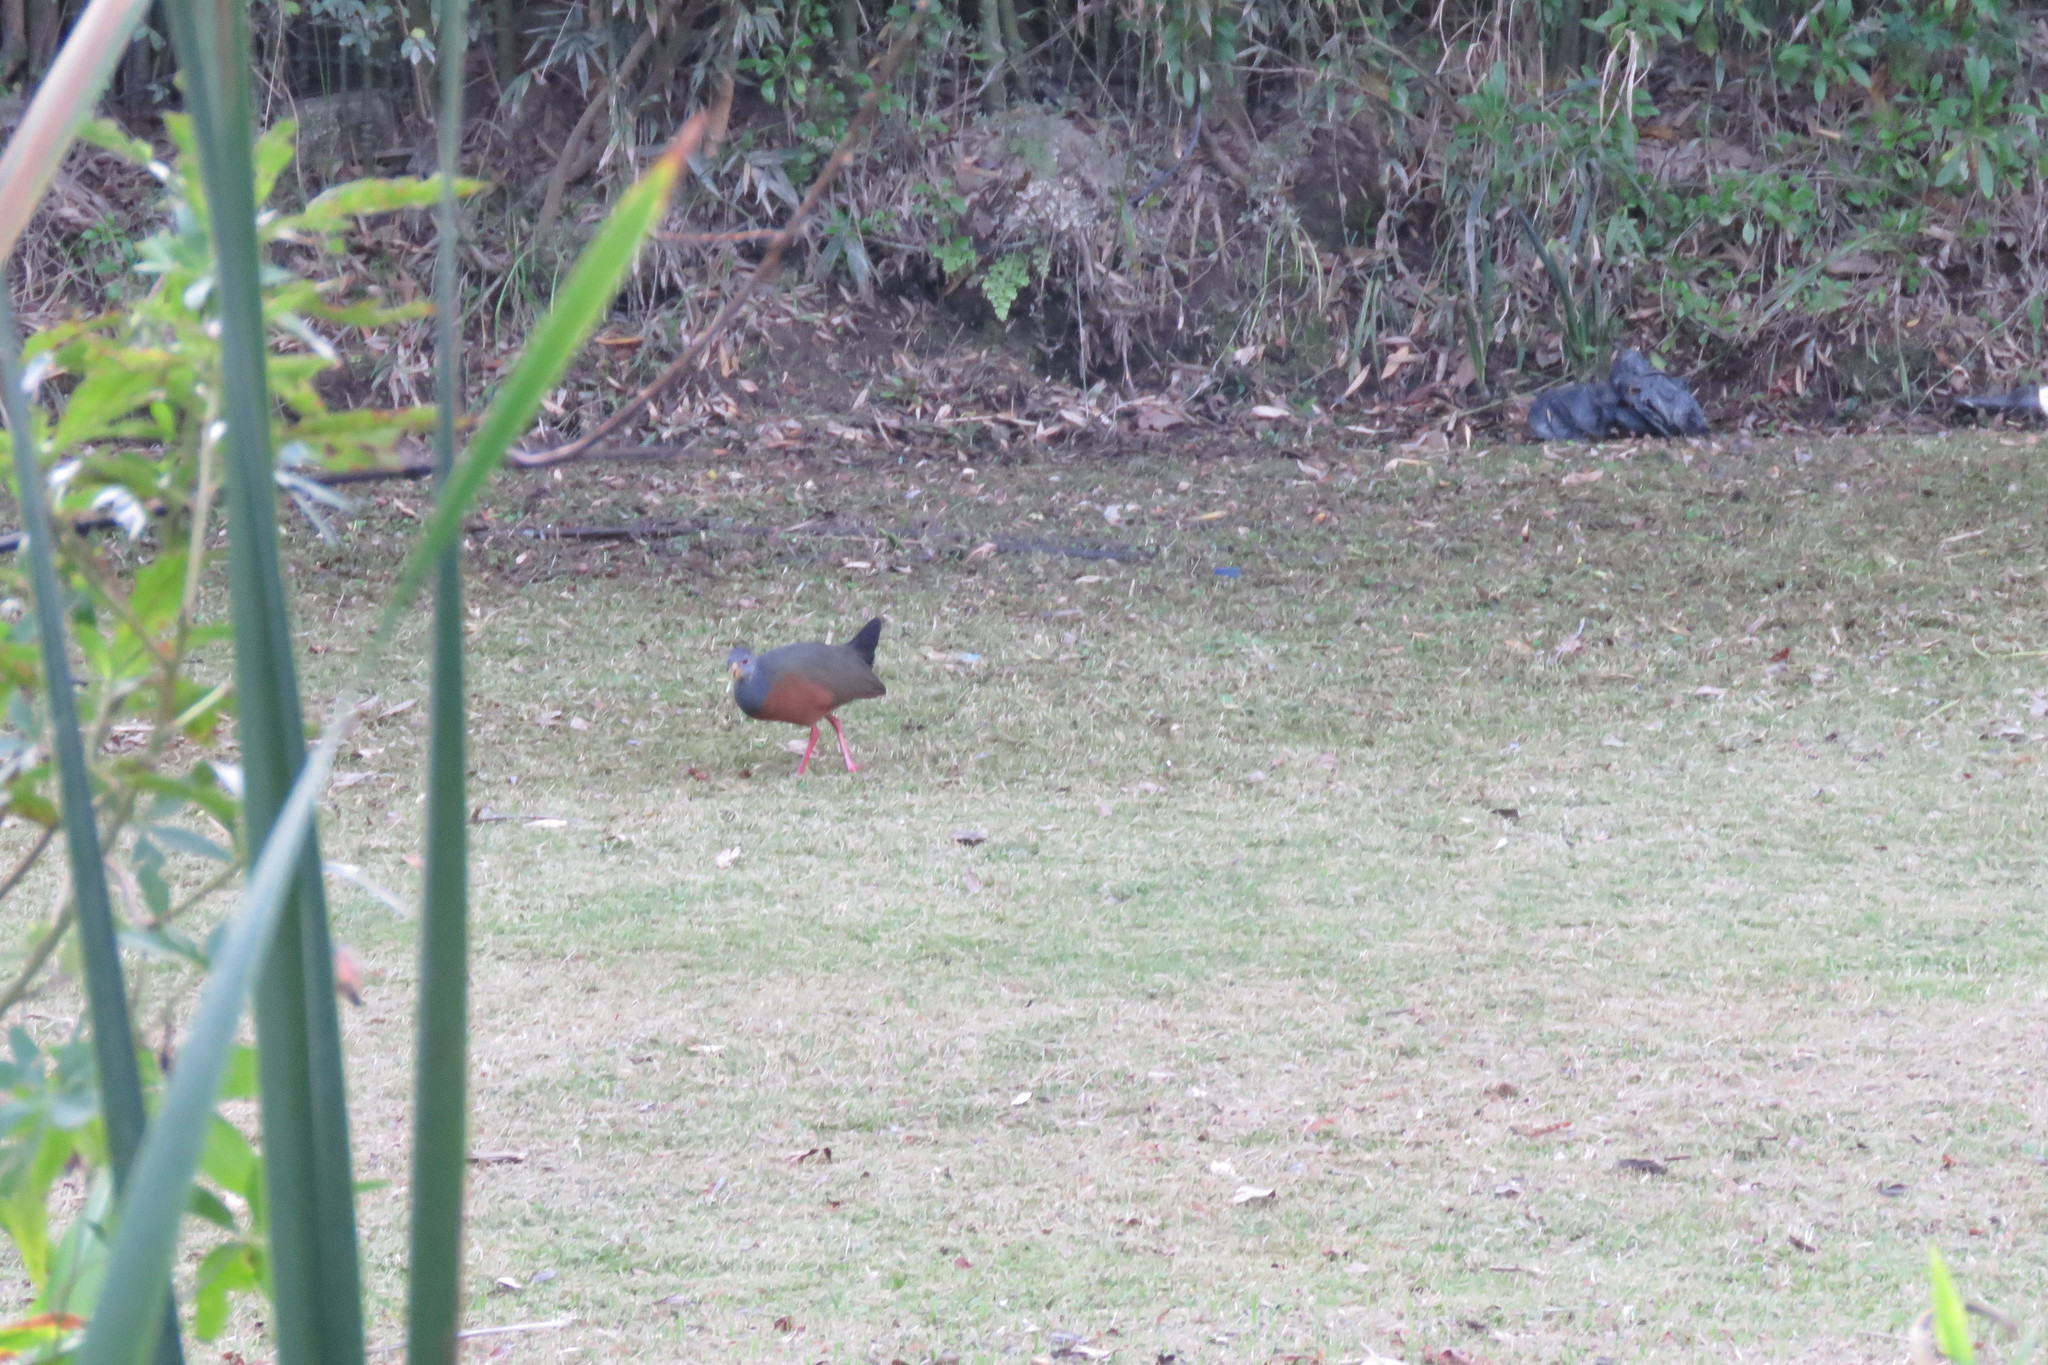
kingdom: Animalia
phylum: Chordata
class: Aves
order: Gruiformes
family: Rallidae
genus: Aramides
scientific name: Aramides cajanea
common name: Gray-necked wood-rail
